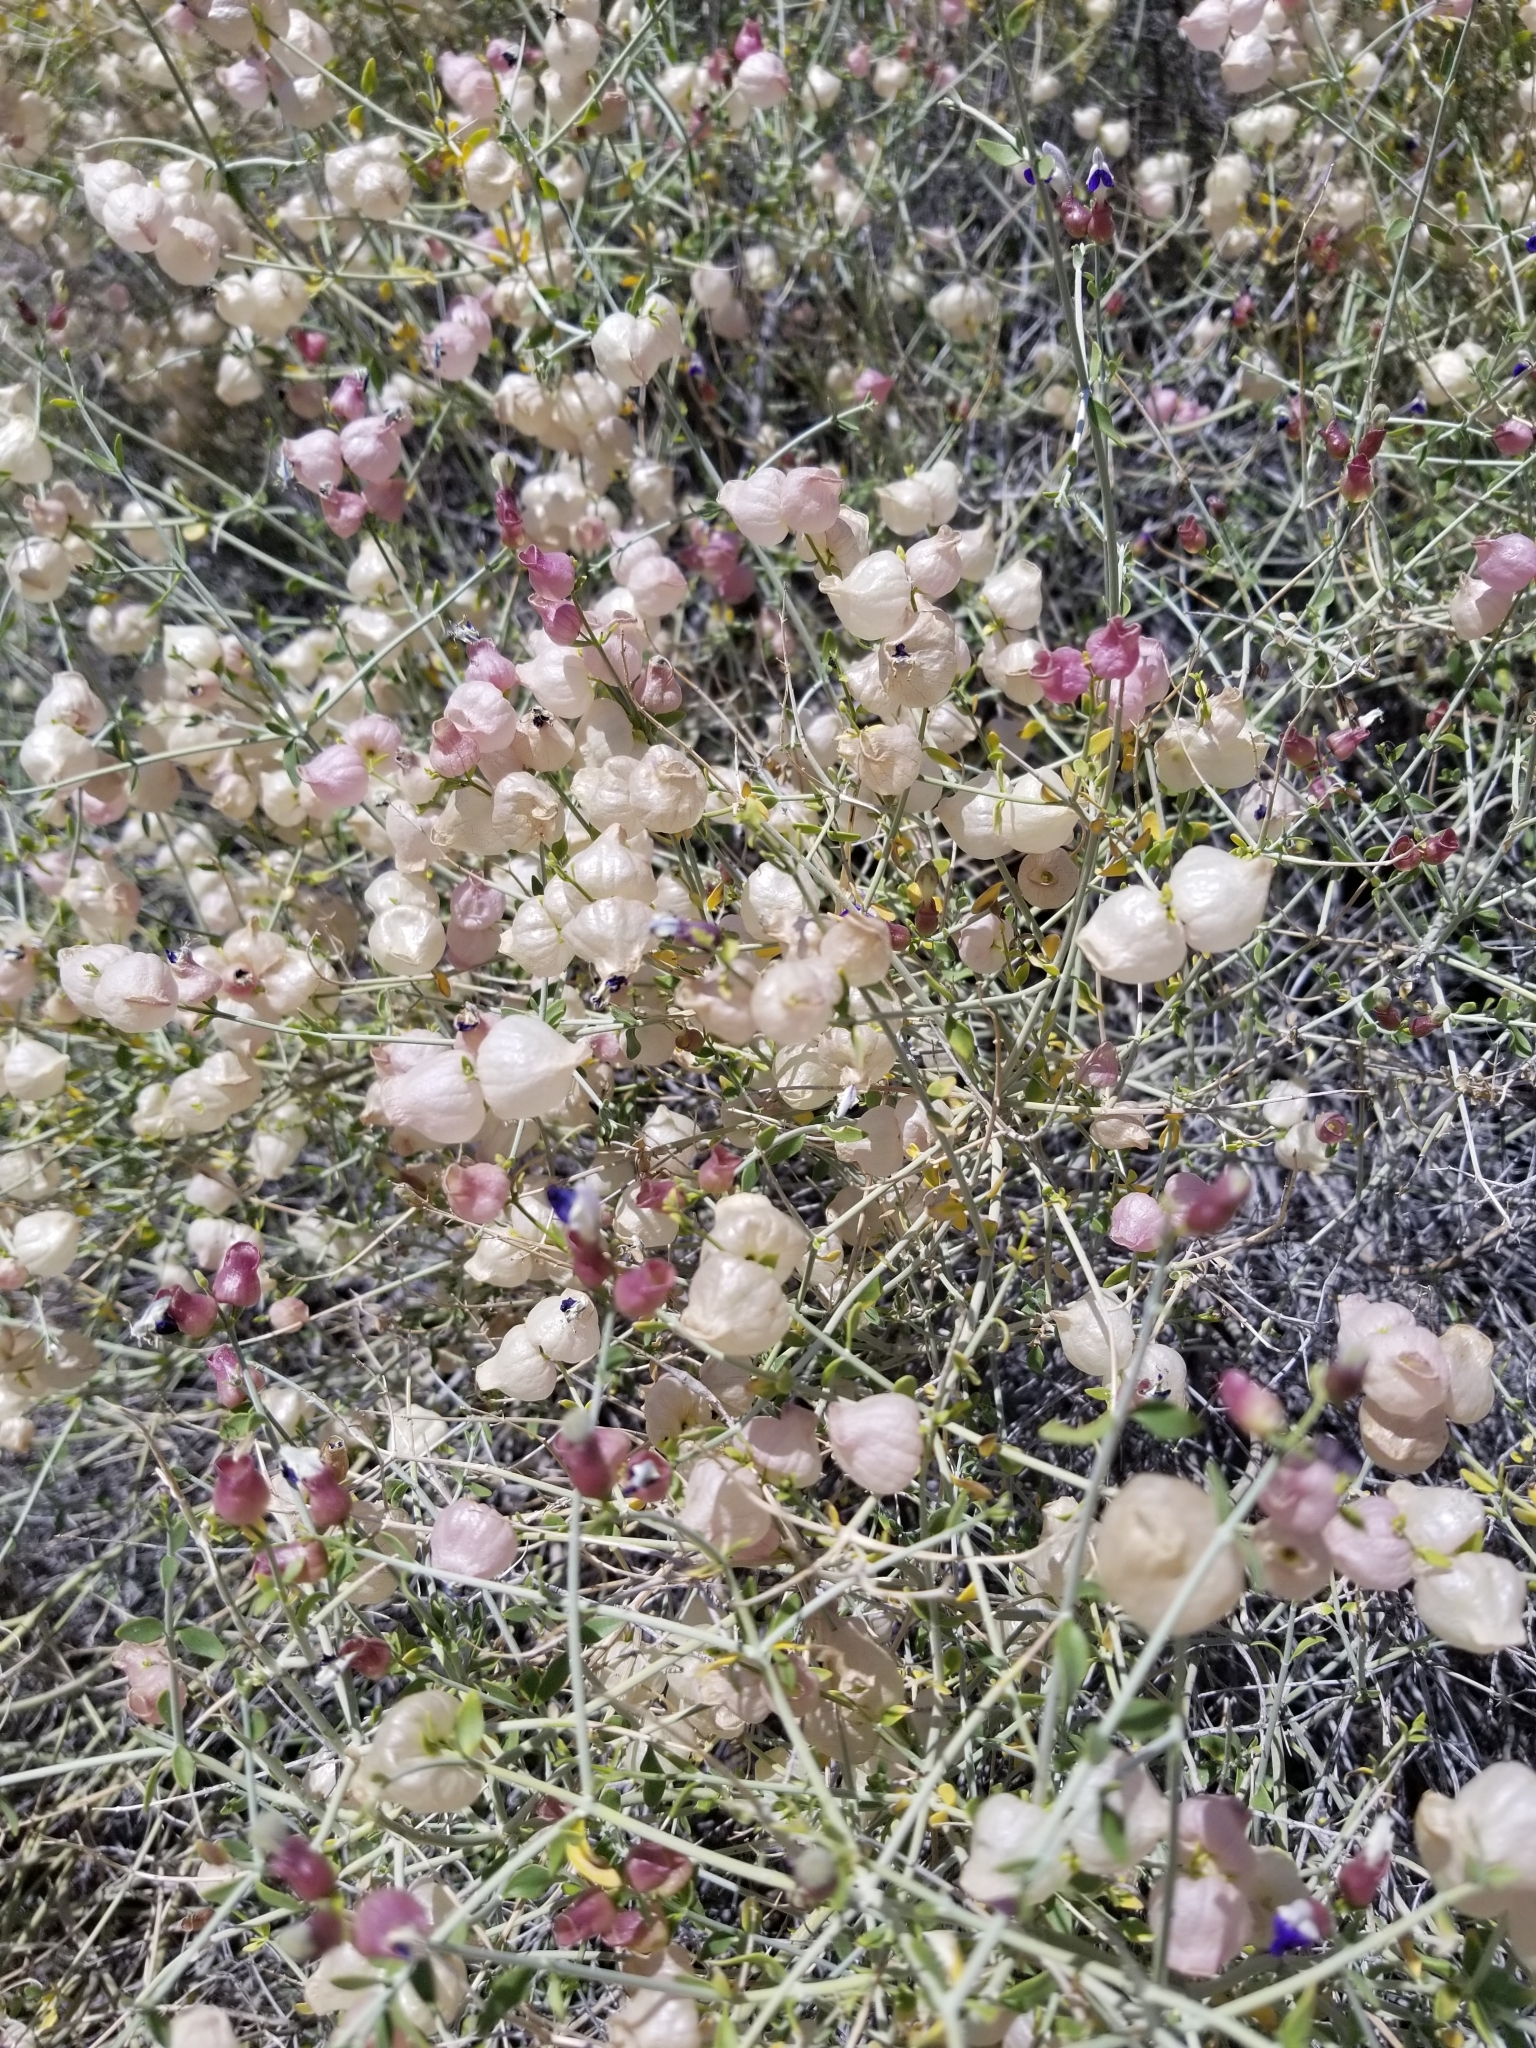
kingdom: Plantae
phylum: Tracheophyta
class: Magnoliopsida
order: Lamiales
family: Lamiaceae
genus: Scutellaria
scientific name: Scutellaria mexicana
